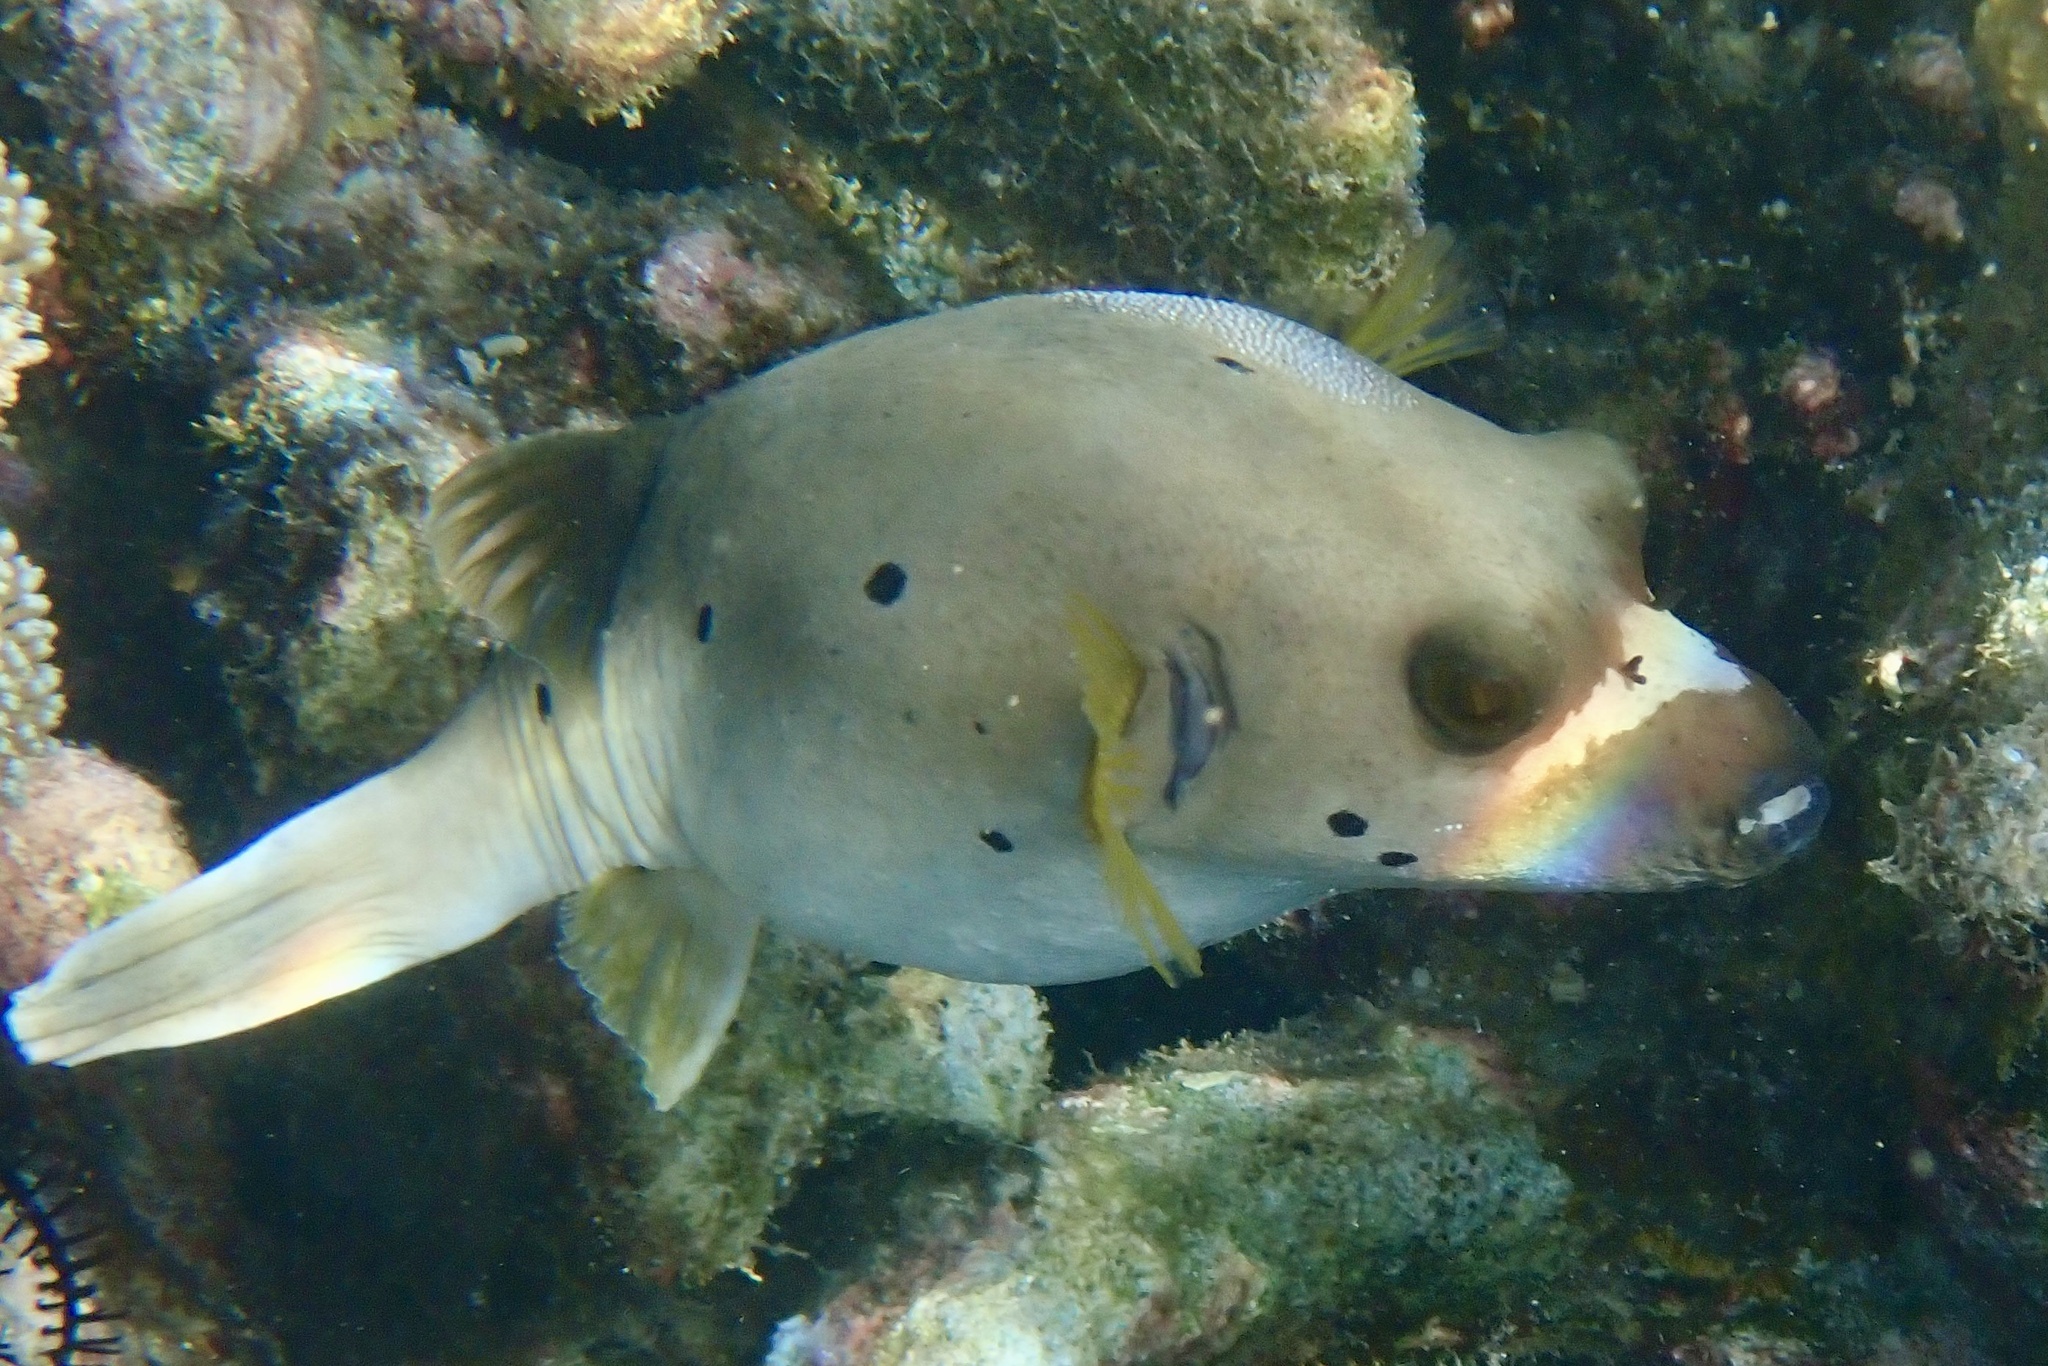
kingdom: Animalia
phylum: Chordata
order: Tetraodontiformes
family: Tetraodontidae
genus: Arothron
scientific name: Arothron nigropunctatus
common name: Black spotted blow fish
